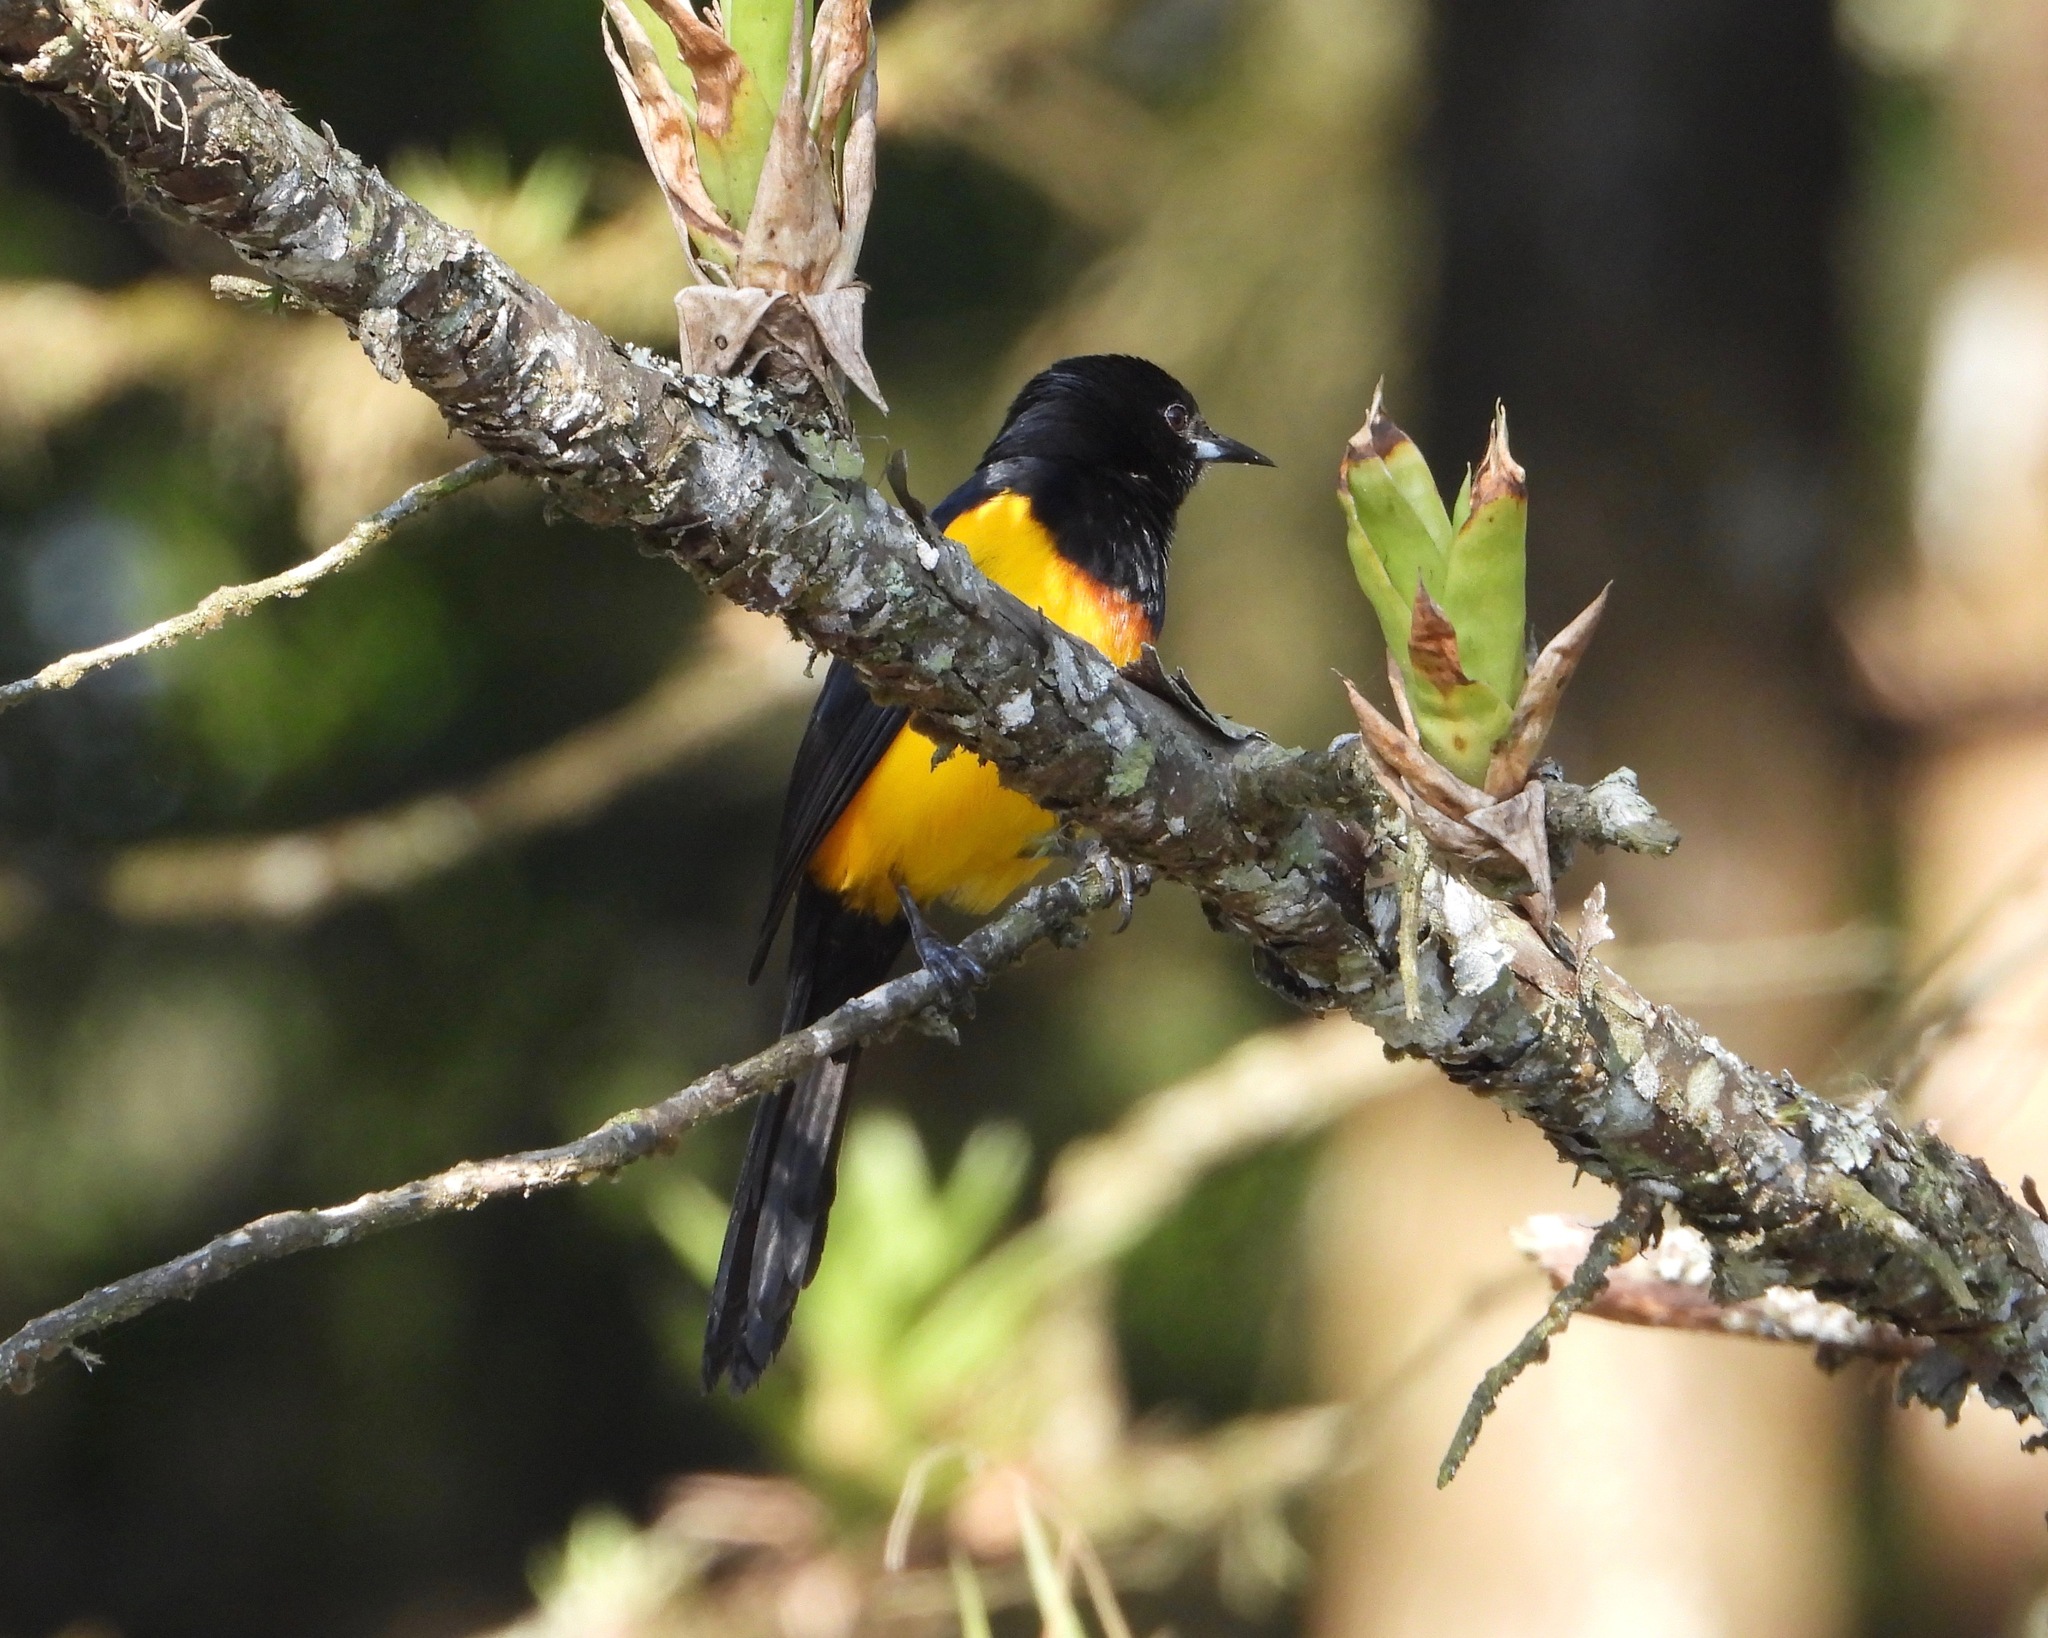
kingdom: Animalia
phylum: Chordata
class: Aves
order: Passeriformes
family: Icteridae
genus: Icterus
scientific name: Icterus wagleri
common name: Black-vented oriole
